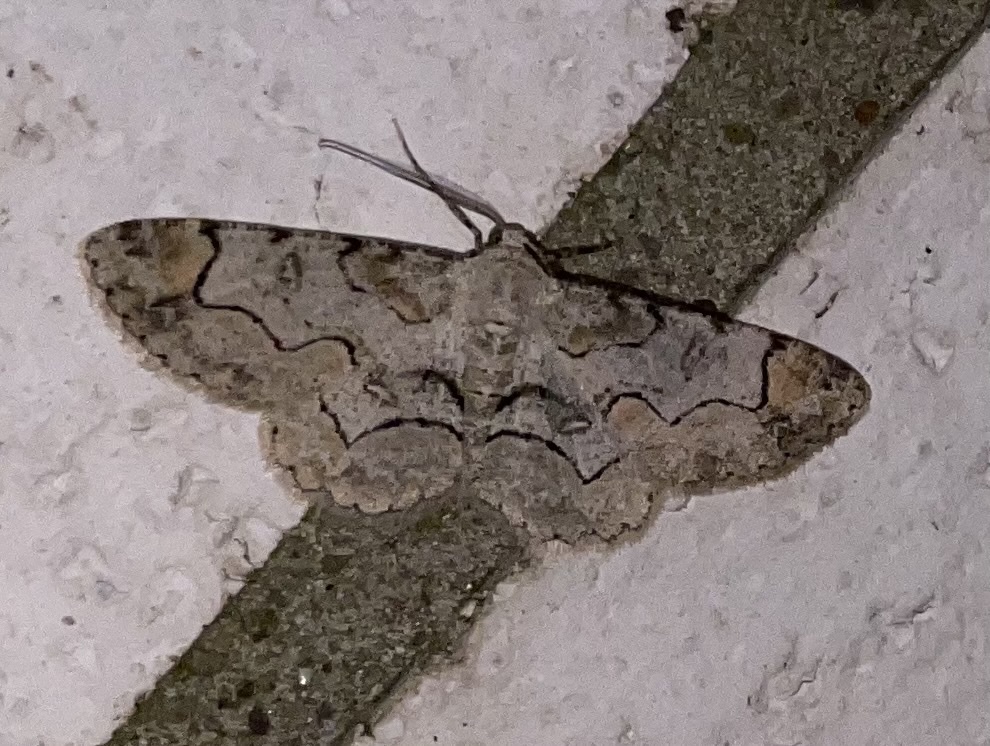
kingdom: Animalia
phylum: Arthropoda
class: Insecta
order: Lepidoptera
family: Geometridae
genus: Iridopsis
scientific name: Iridopsis larvaria
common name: Bent-line gray
